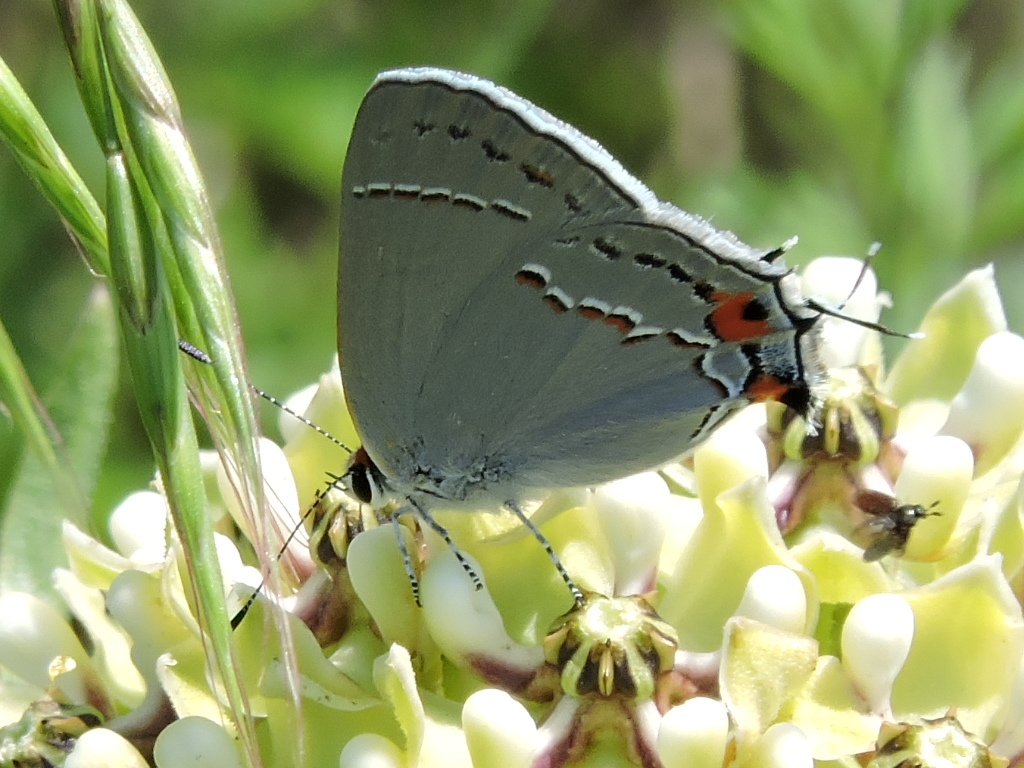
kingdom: Animalia
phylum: Arthropoda
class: Insecta
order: Lepidoptera
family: Lycaenidae
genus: Strymon
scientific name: Strymon melinus
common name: Gray hairstreak
